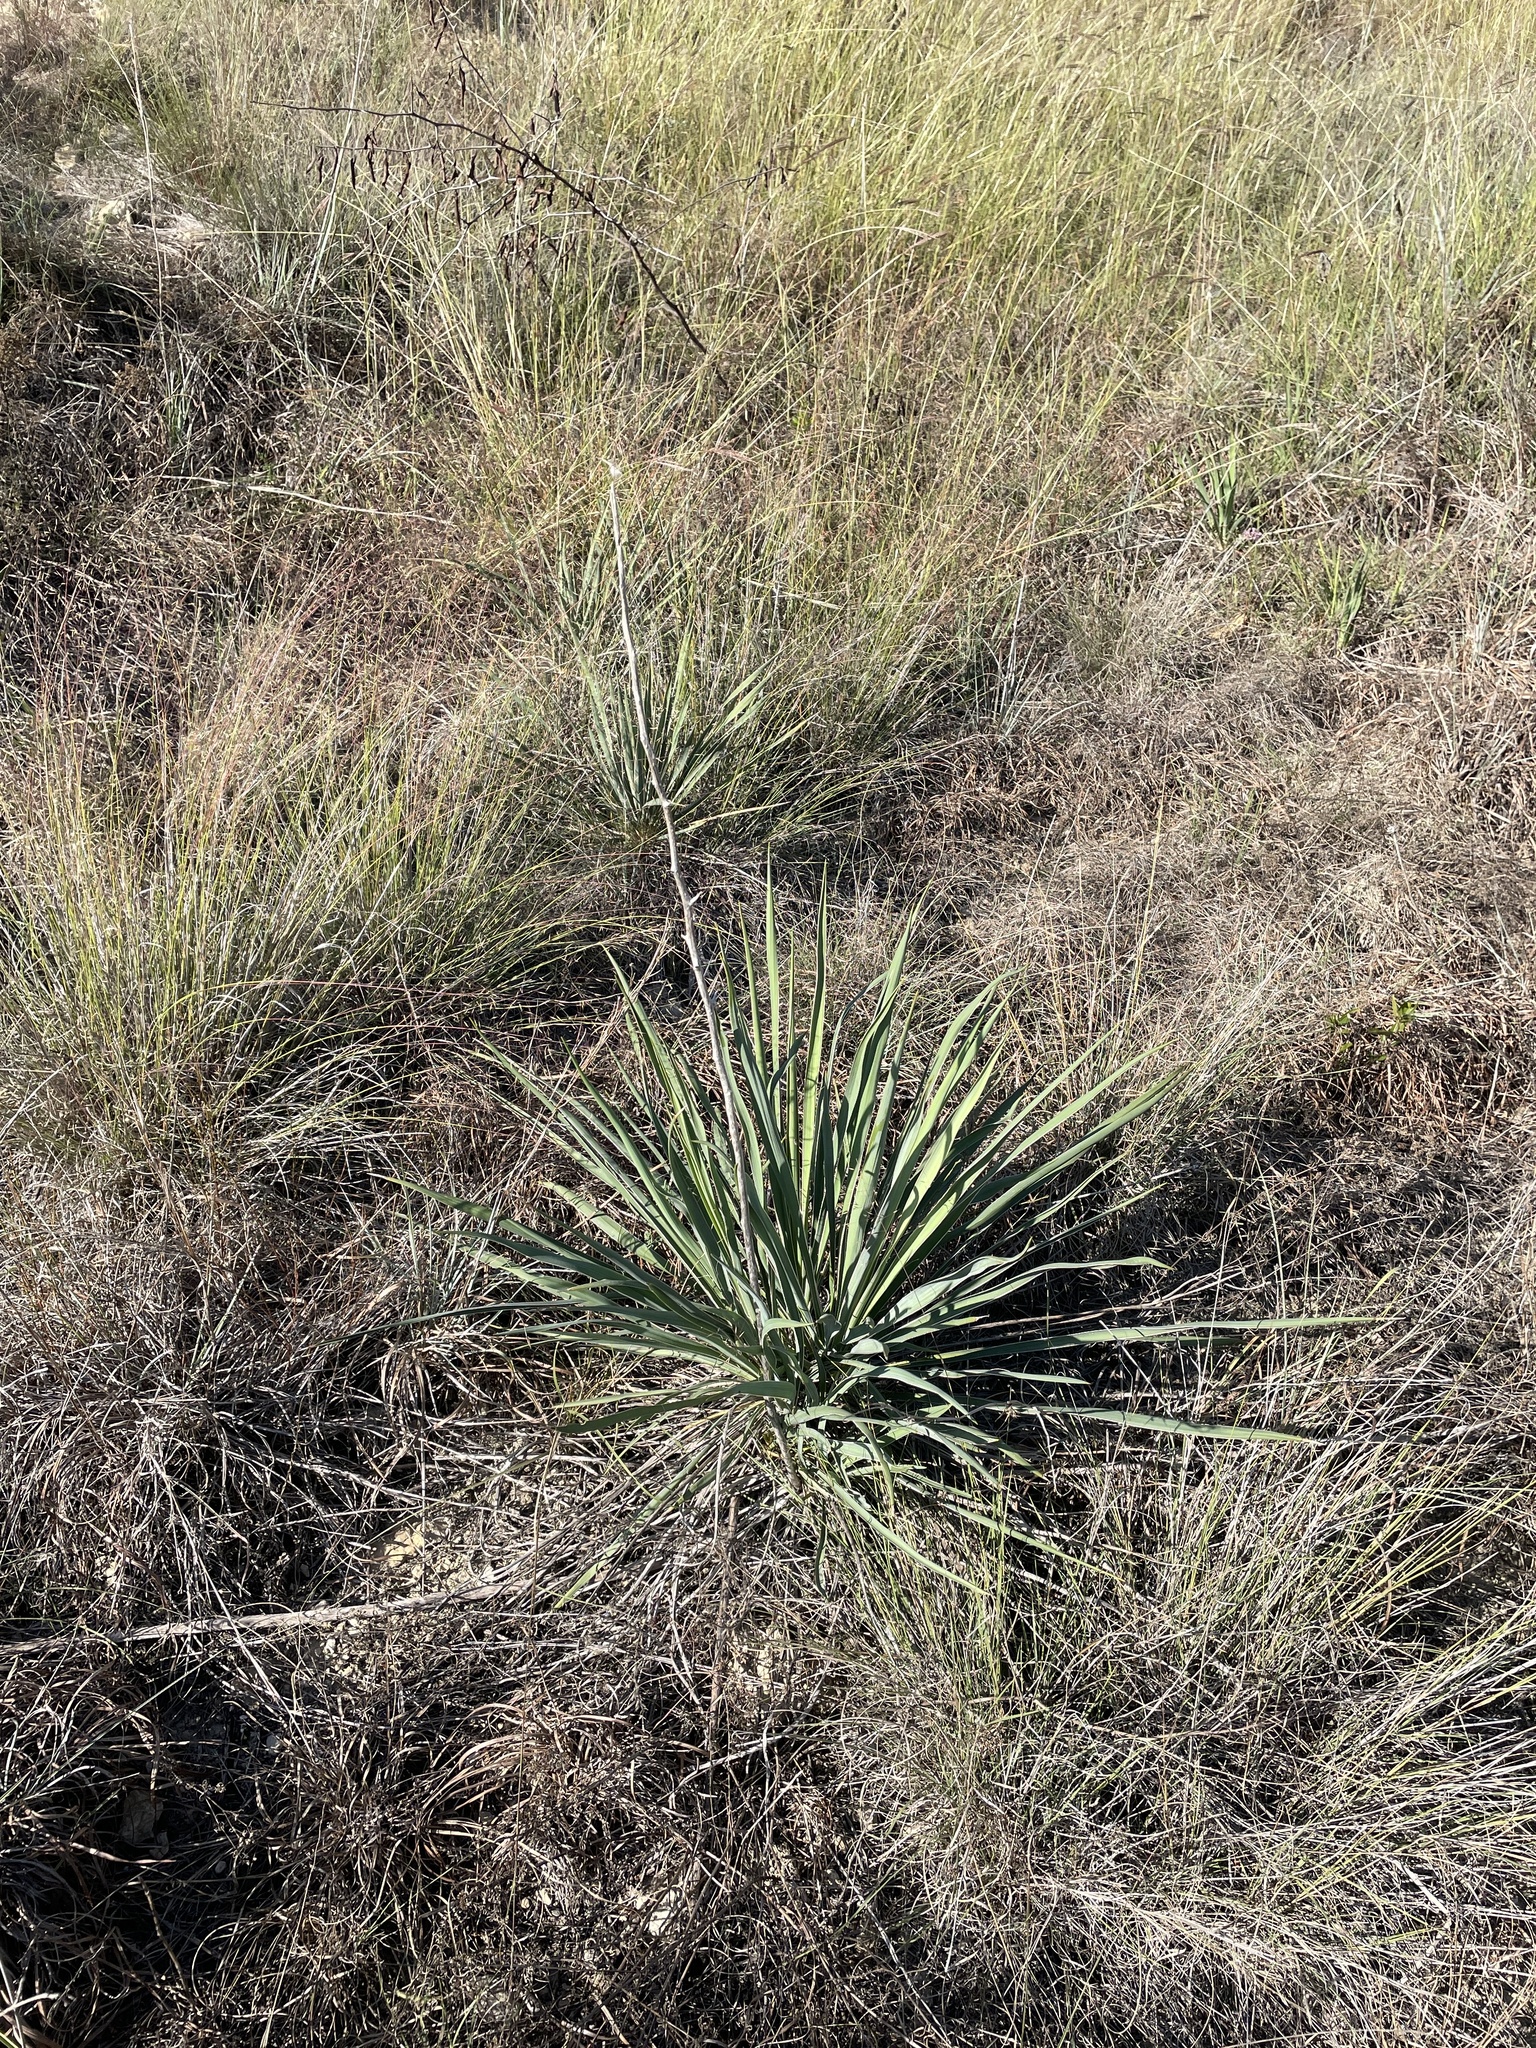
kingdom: Plantae
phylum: Tracheophyta
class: Liliopsida
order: Asparagales
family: Asparagaceae
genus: Yucca
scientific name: Yucca arkansana
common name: Arkansas yucca
